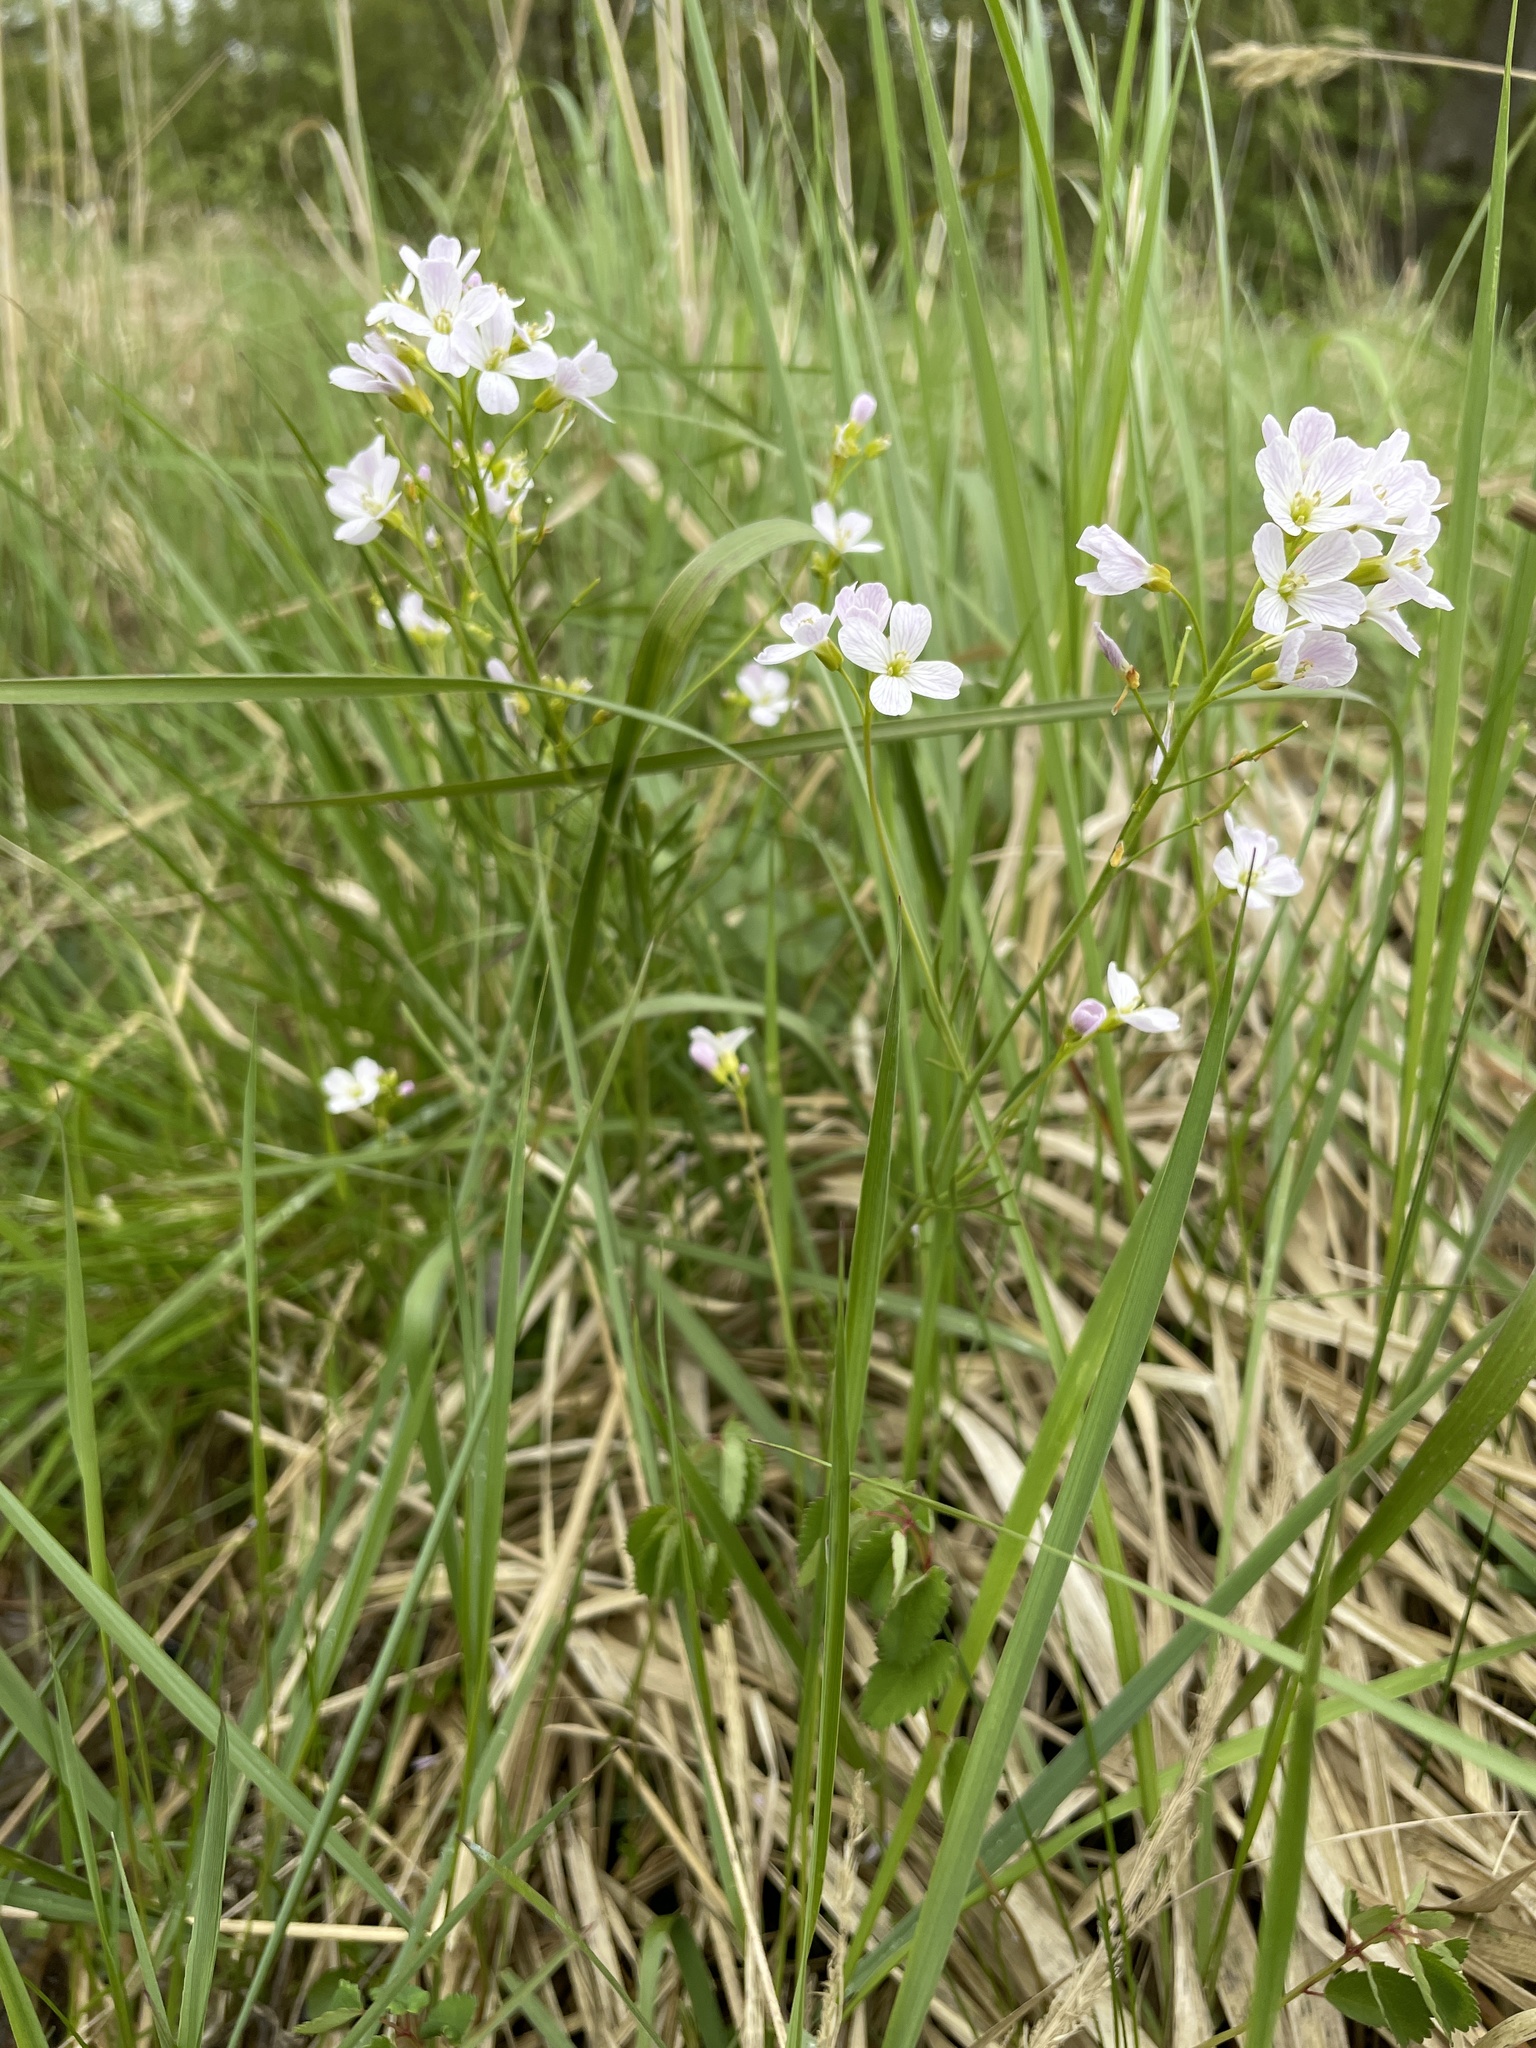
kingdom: Plantae
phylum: Tracheophyta
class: Magnoliopsida
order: Brassicales
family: Brassicaceae
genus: Cardamine
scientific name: Cardamine pratensis
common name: Cuckoo flower
